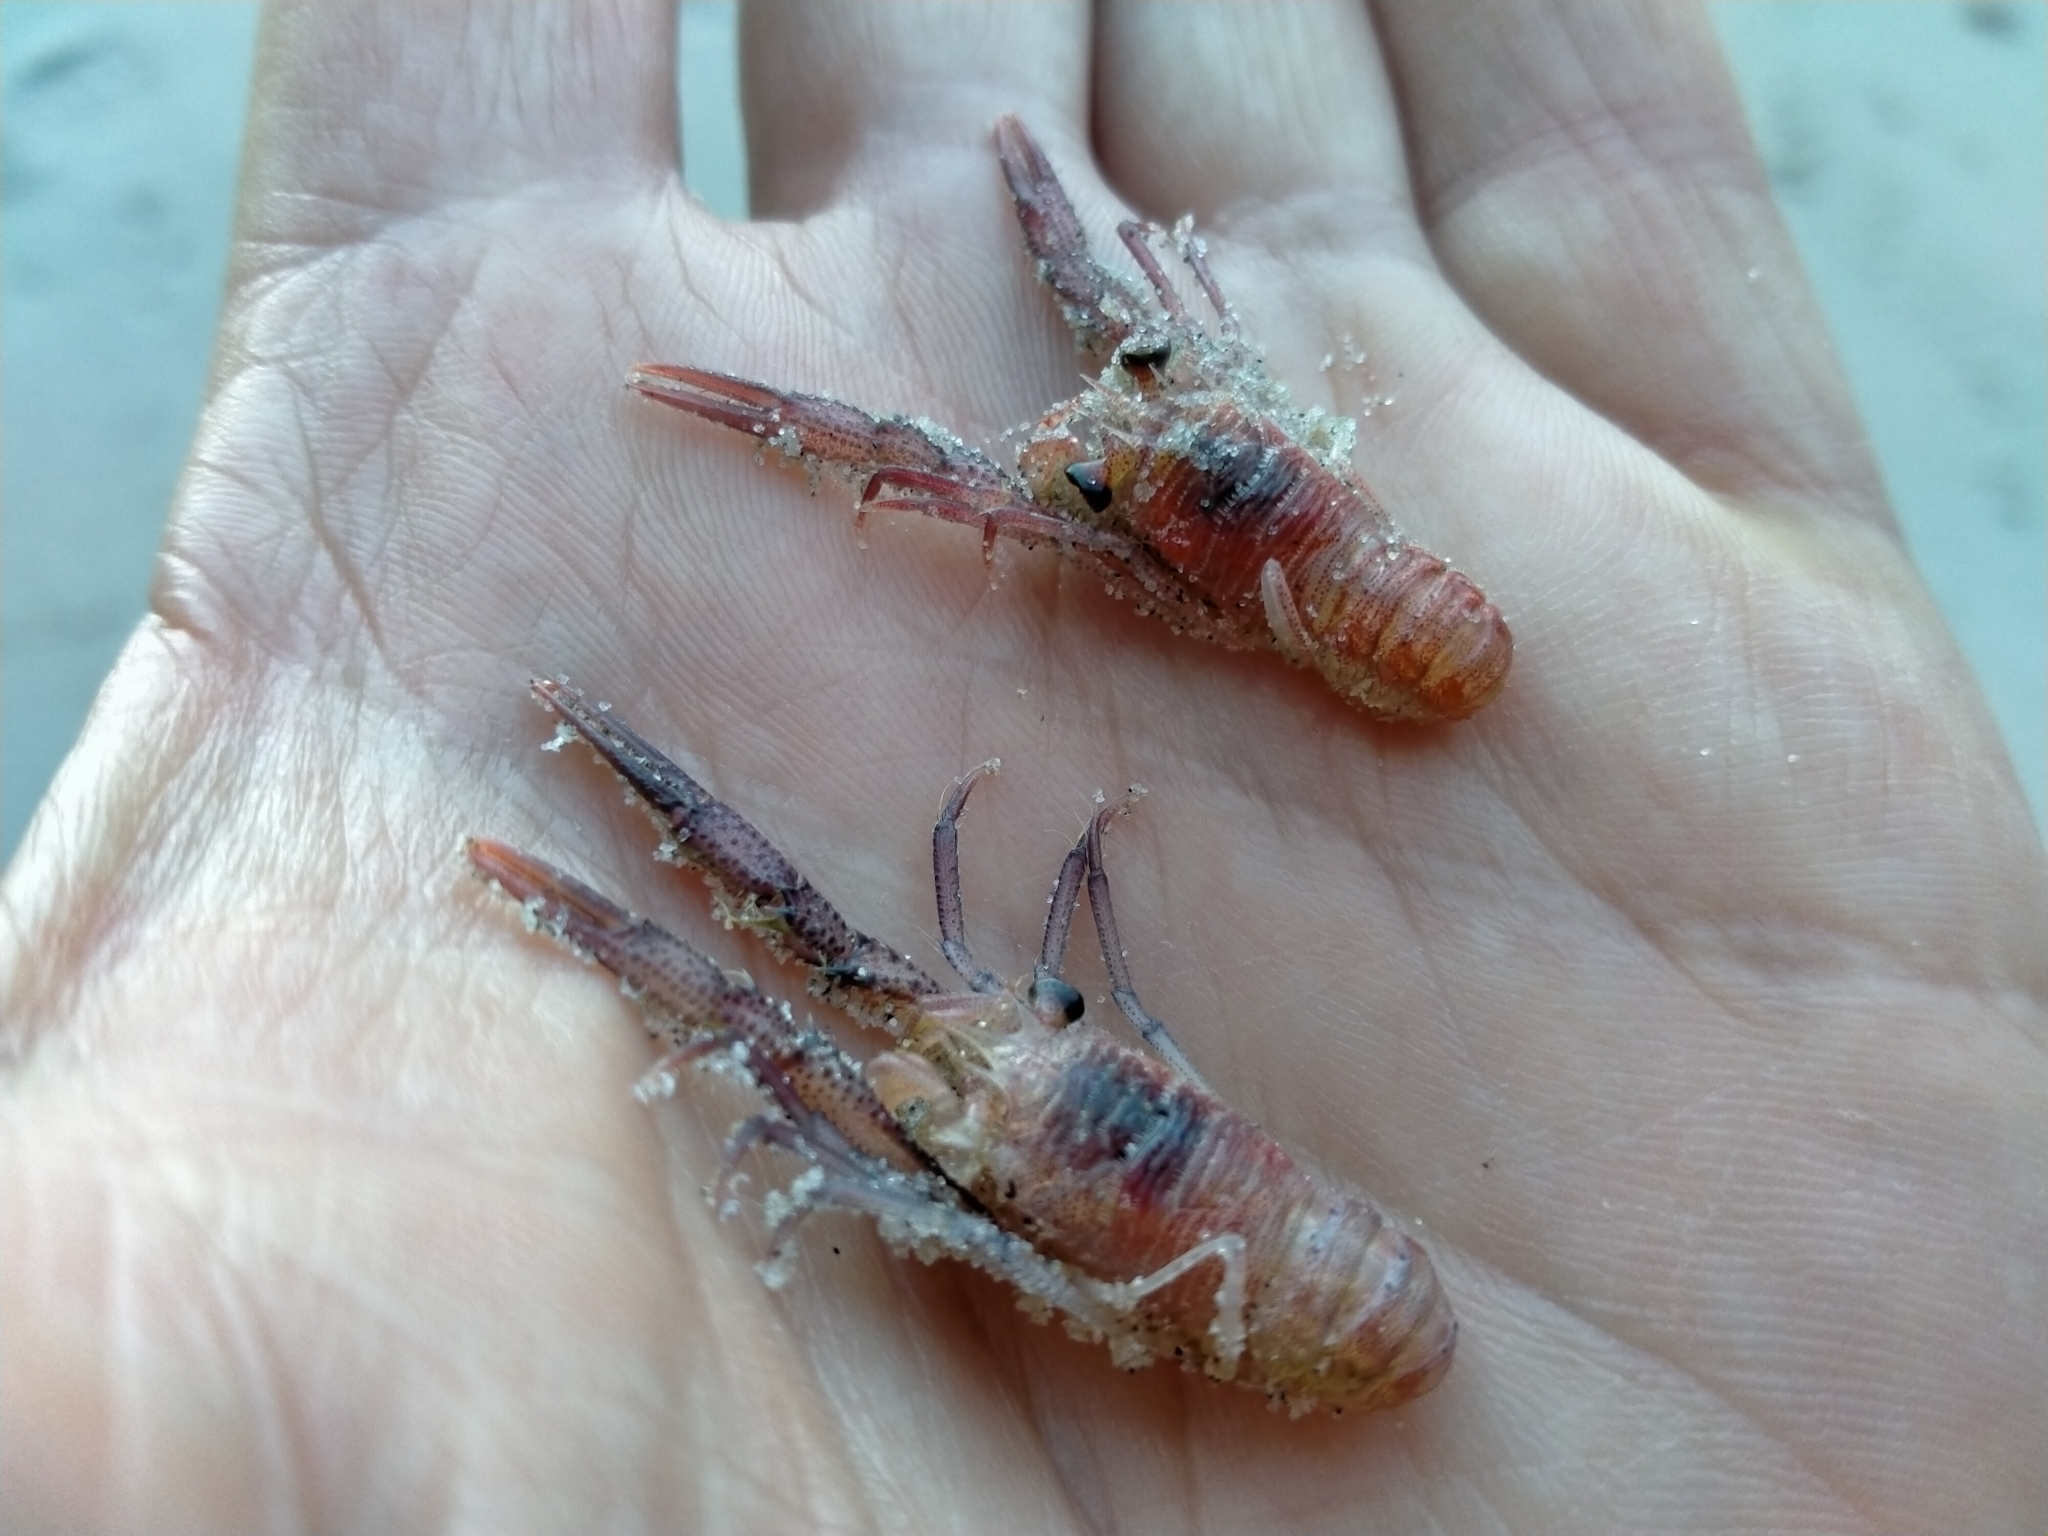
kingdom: Animalia
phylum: Arthropoda
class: Malacostraca
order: Decapoda
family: Munididae
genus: Grimothea
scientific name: Grimothea gregaria
